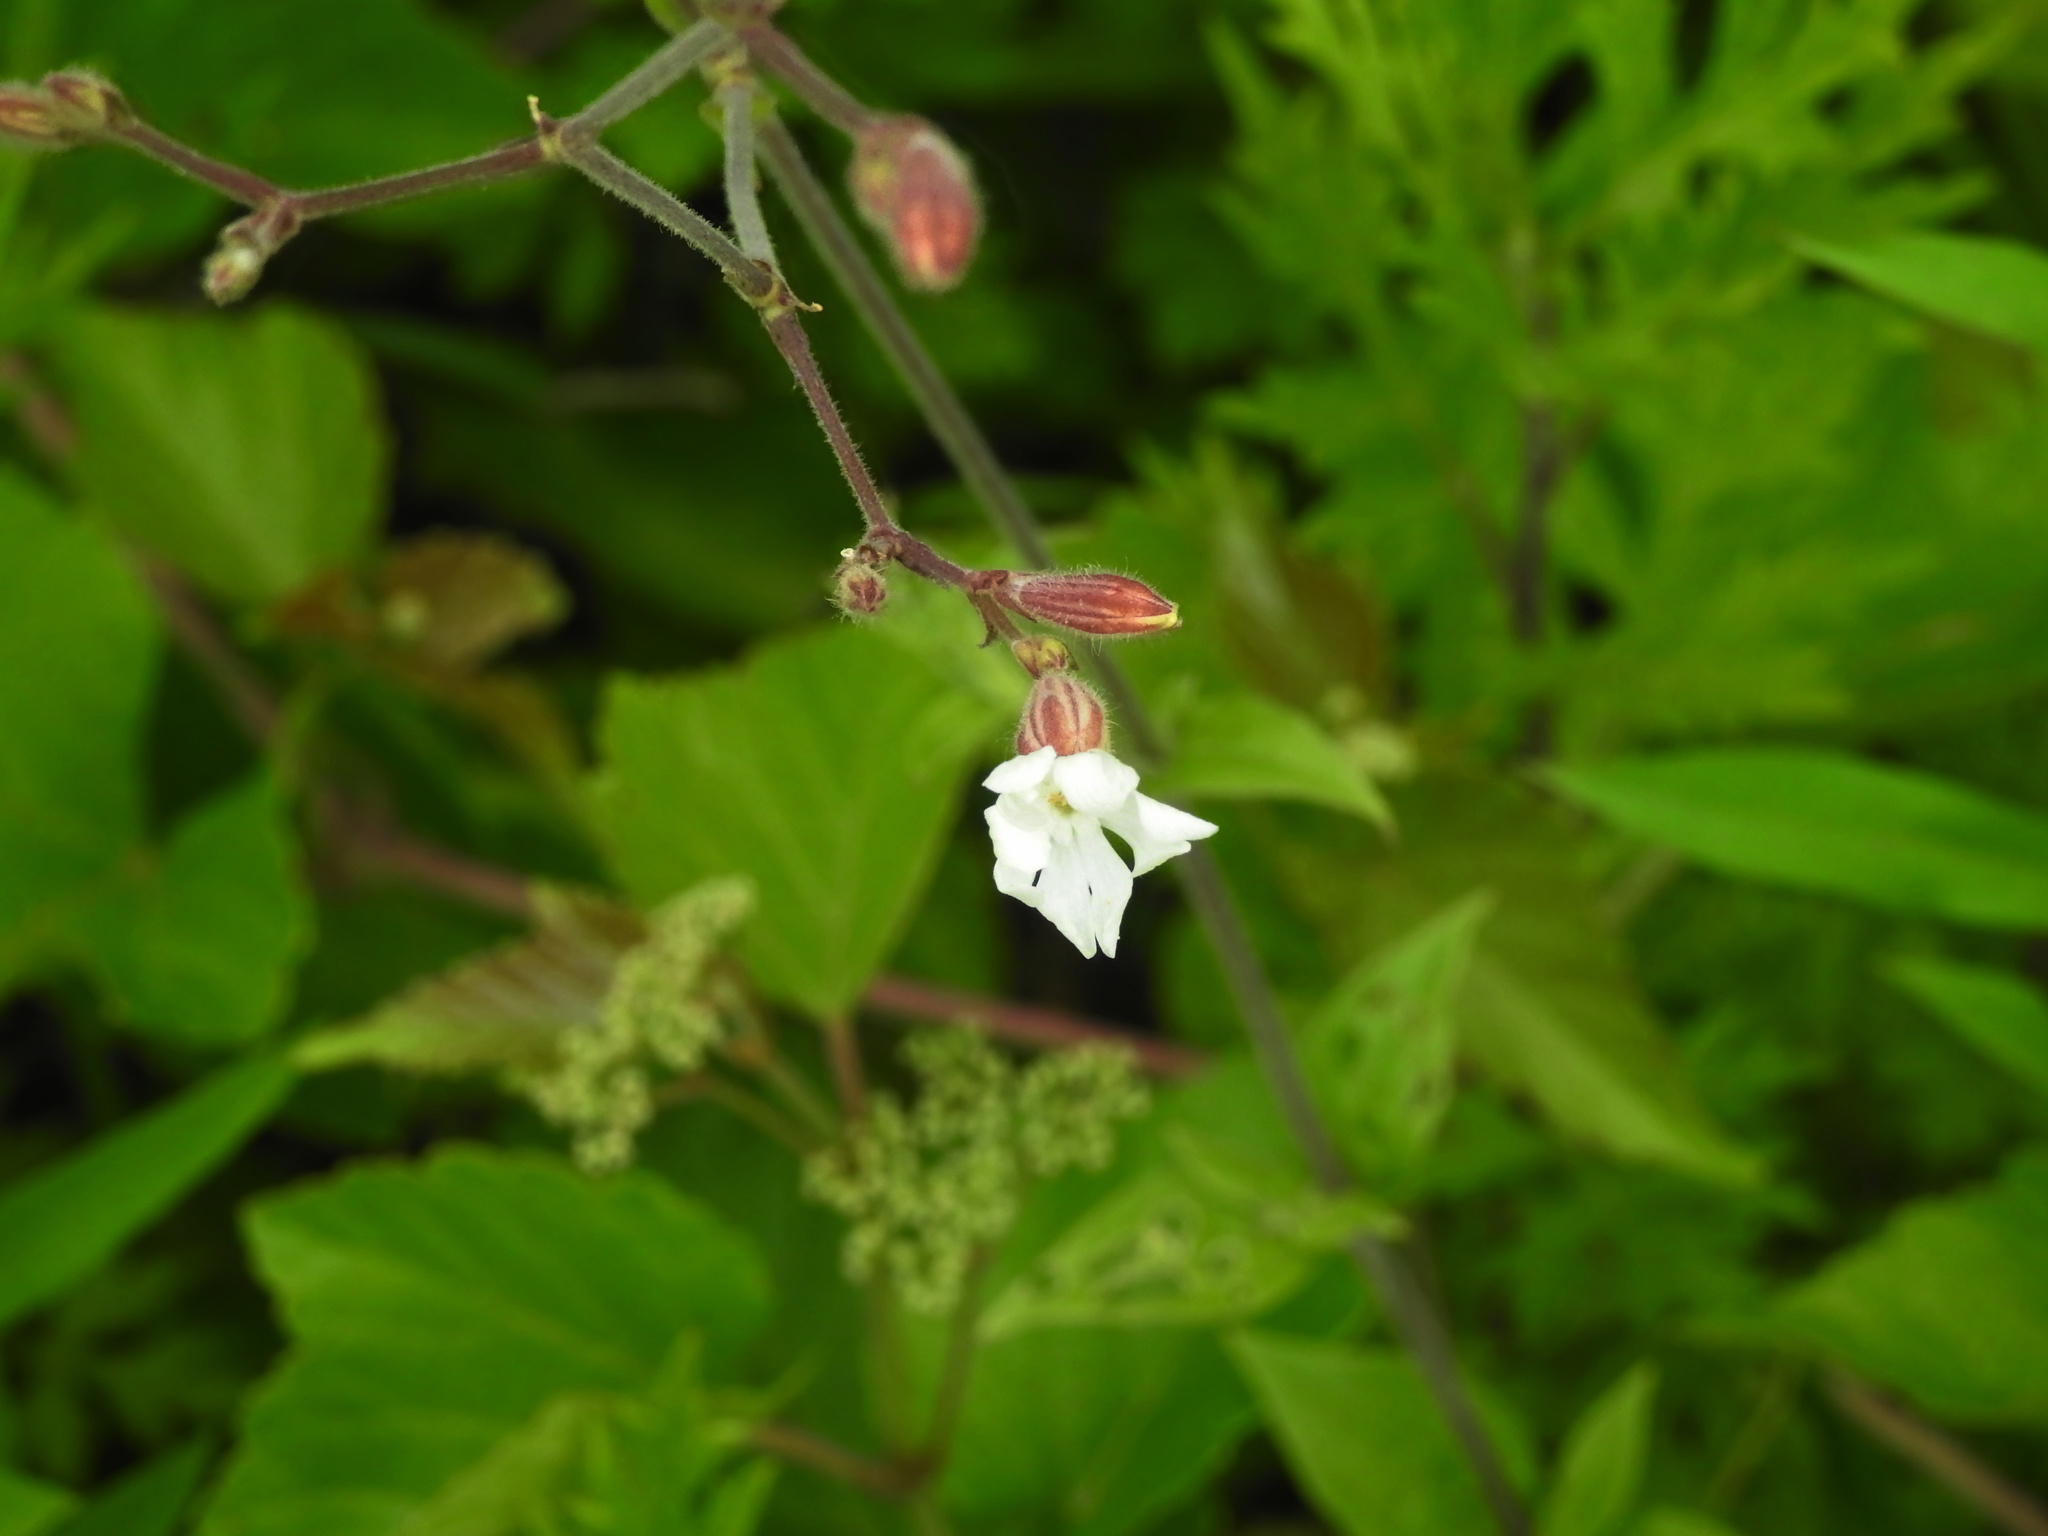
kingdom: Plantae
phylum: Tracheophyta
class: Magnoliopsida
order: Caryophyllales
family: Caryophyllaceae
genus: Silene
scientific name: Silene latifolia
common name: White campion
